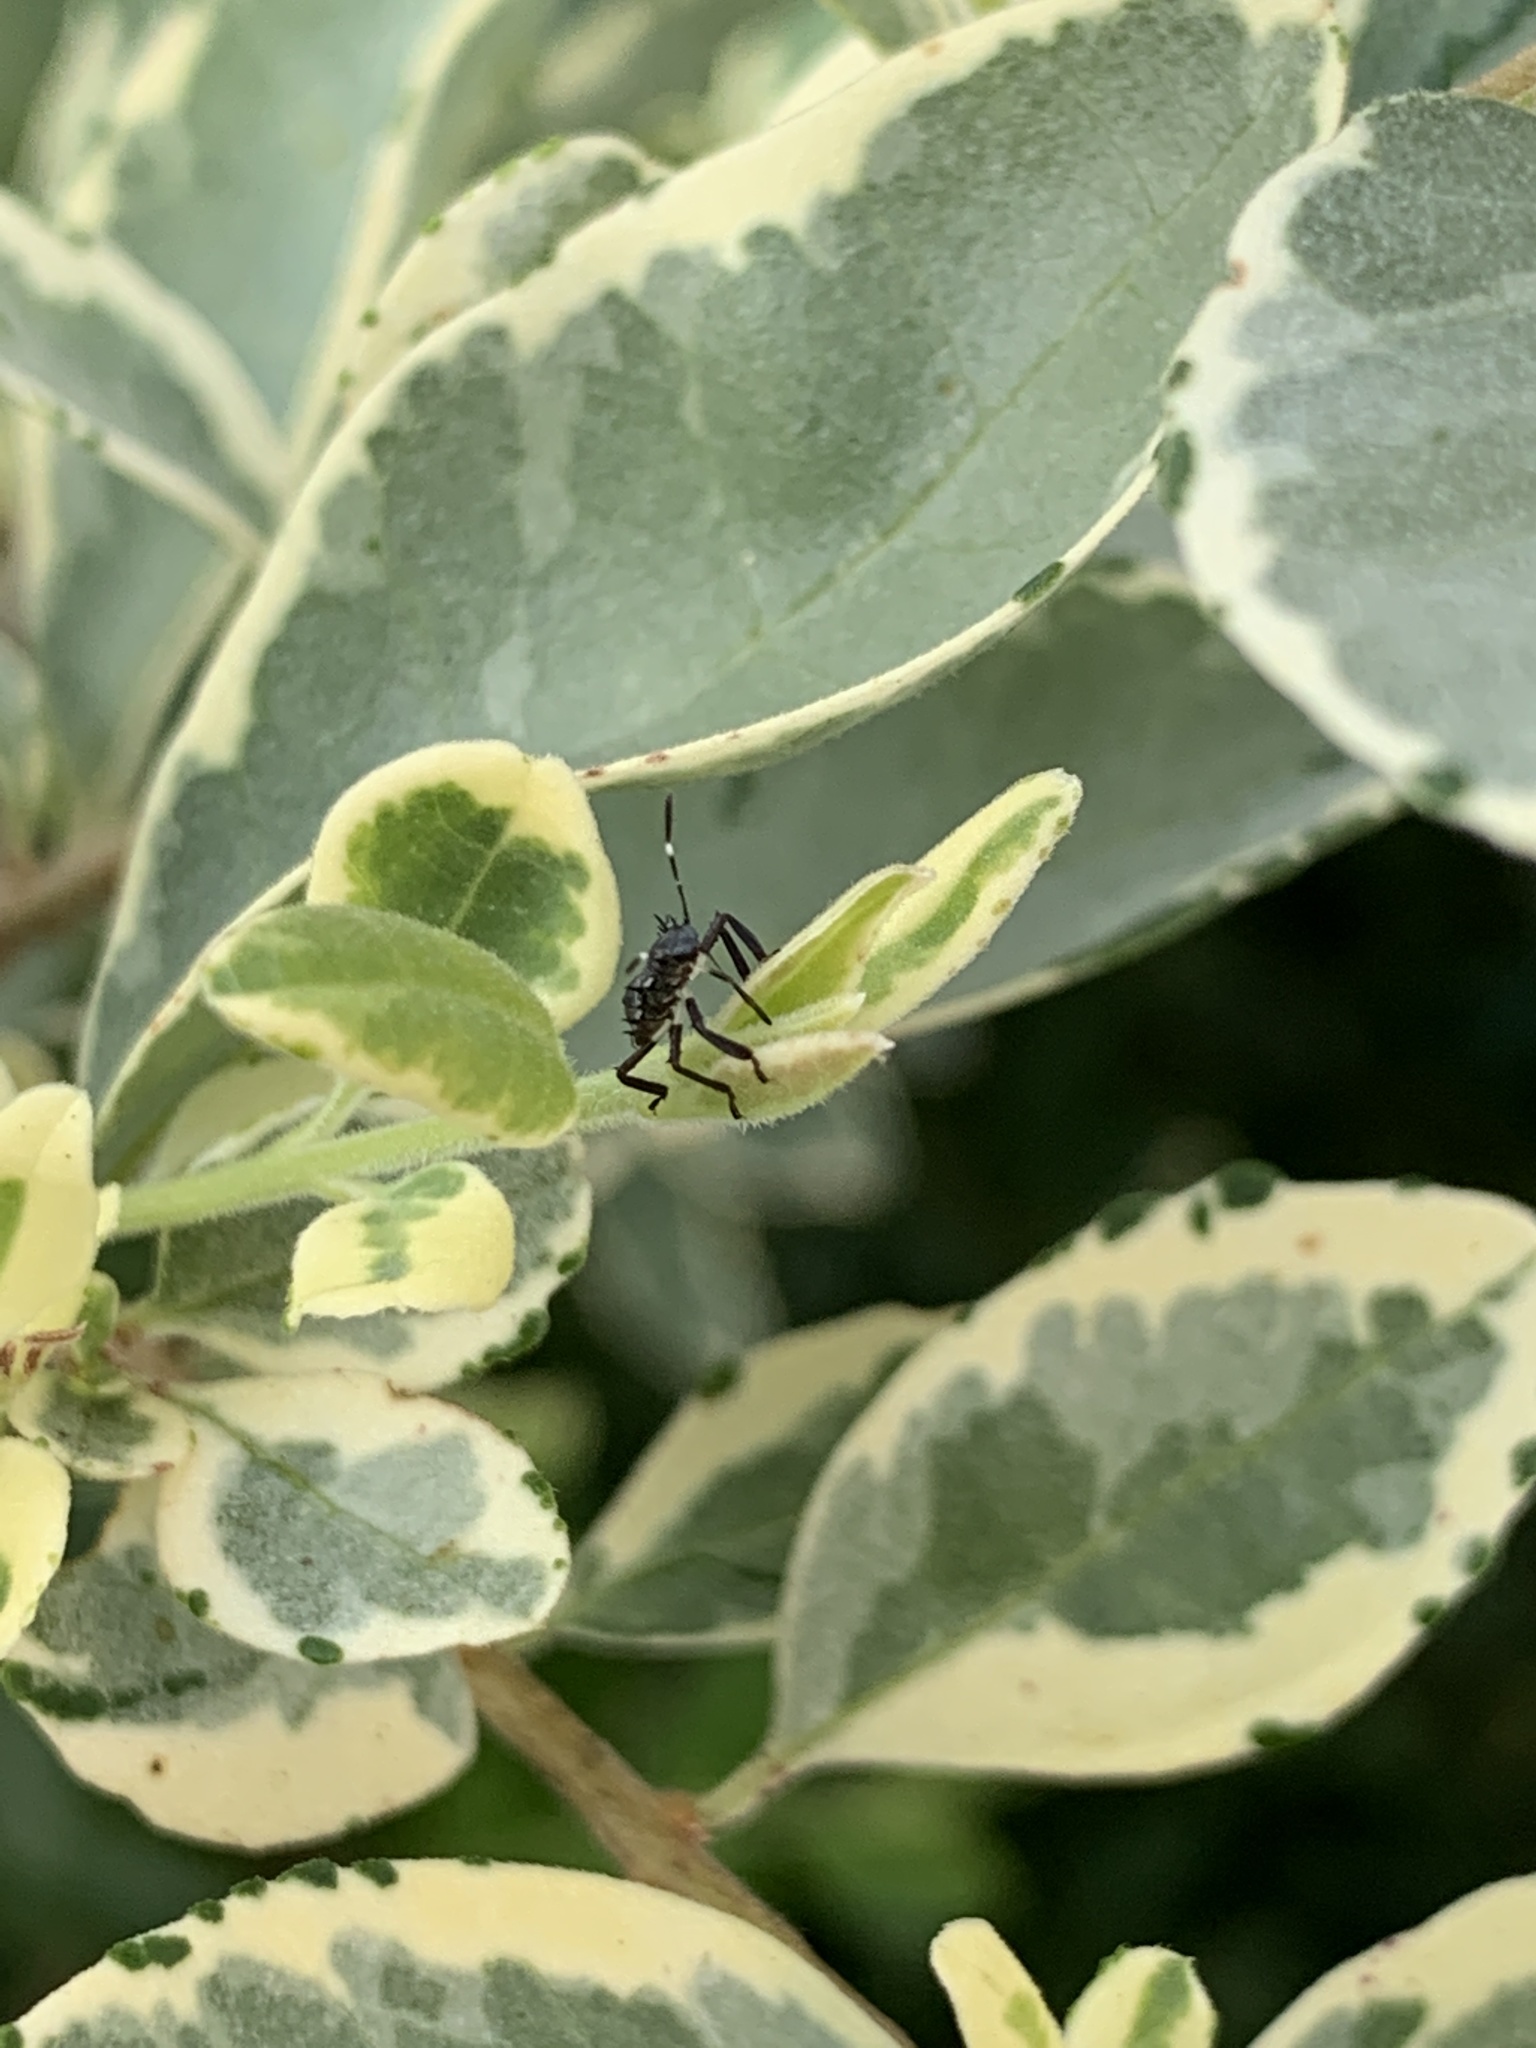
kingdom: Animalia
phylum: Arthropoda
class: Insecta
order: Hemiptera
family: Pentatomidae
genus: Halyomorpha
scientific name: Halyomorpha halys
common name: Brown marmorated stink bug
